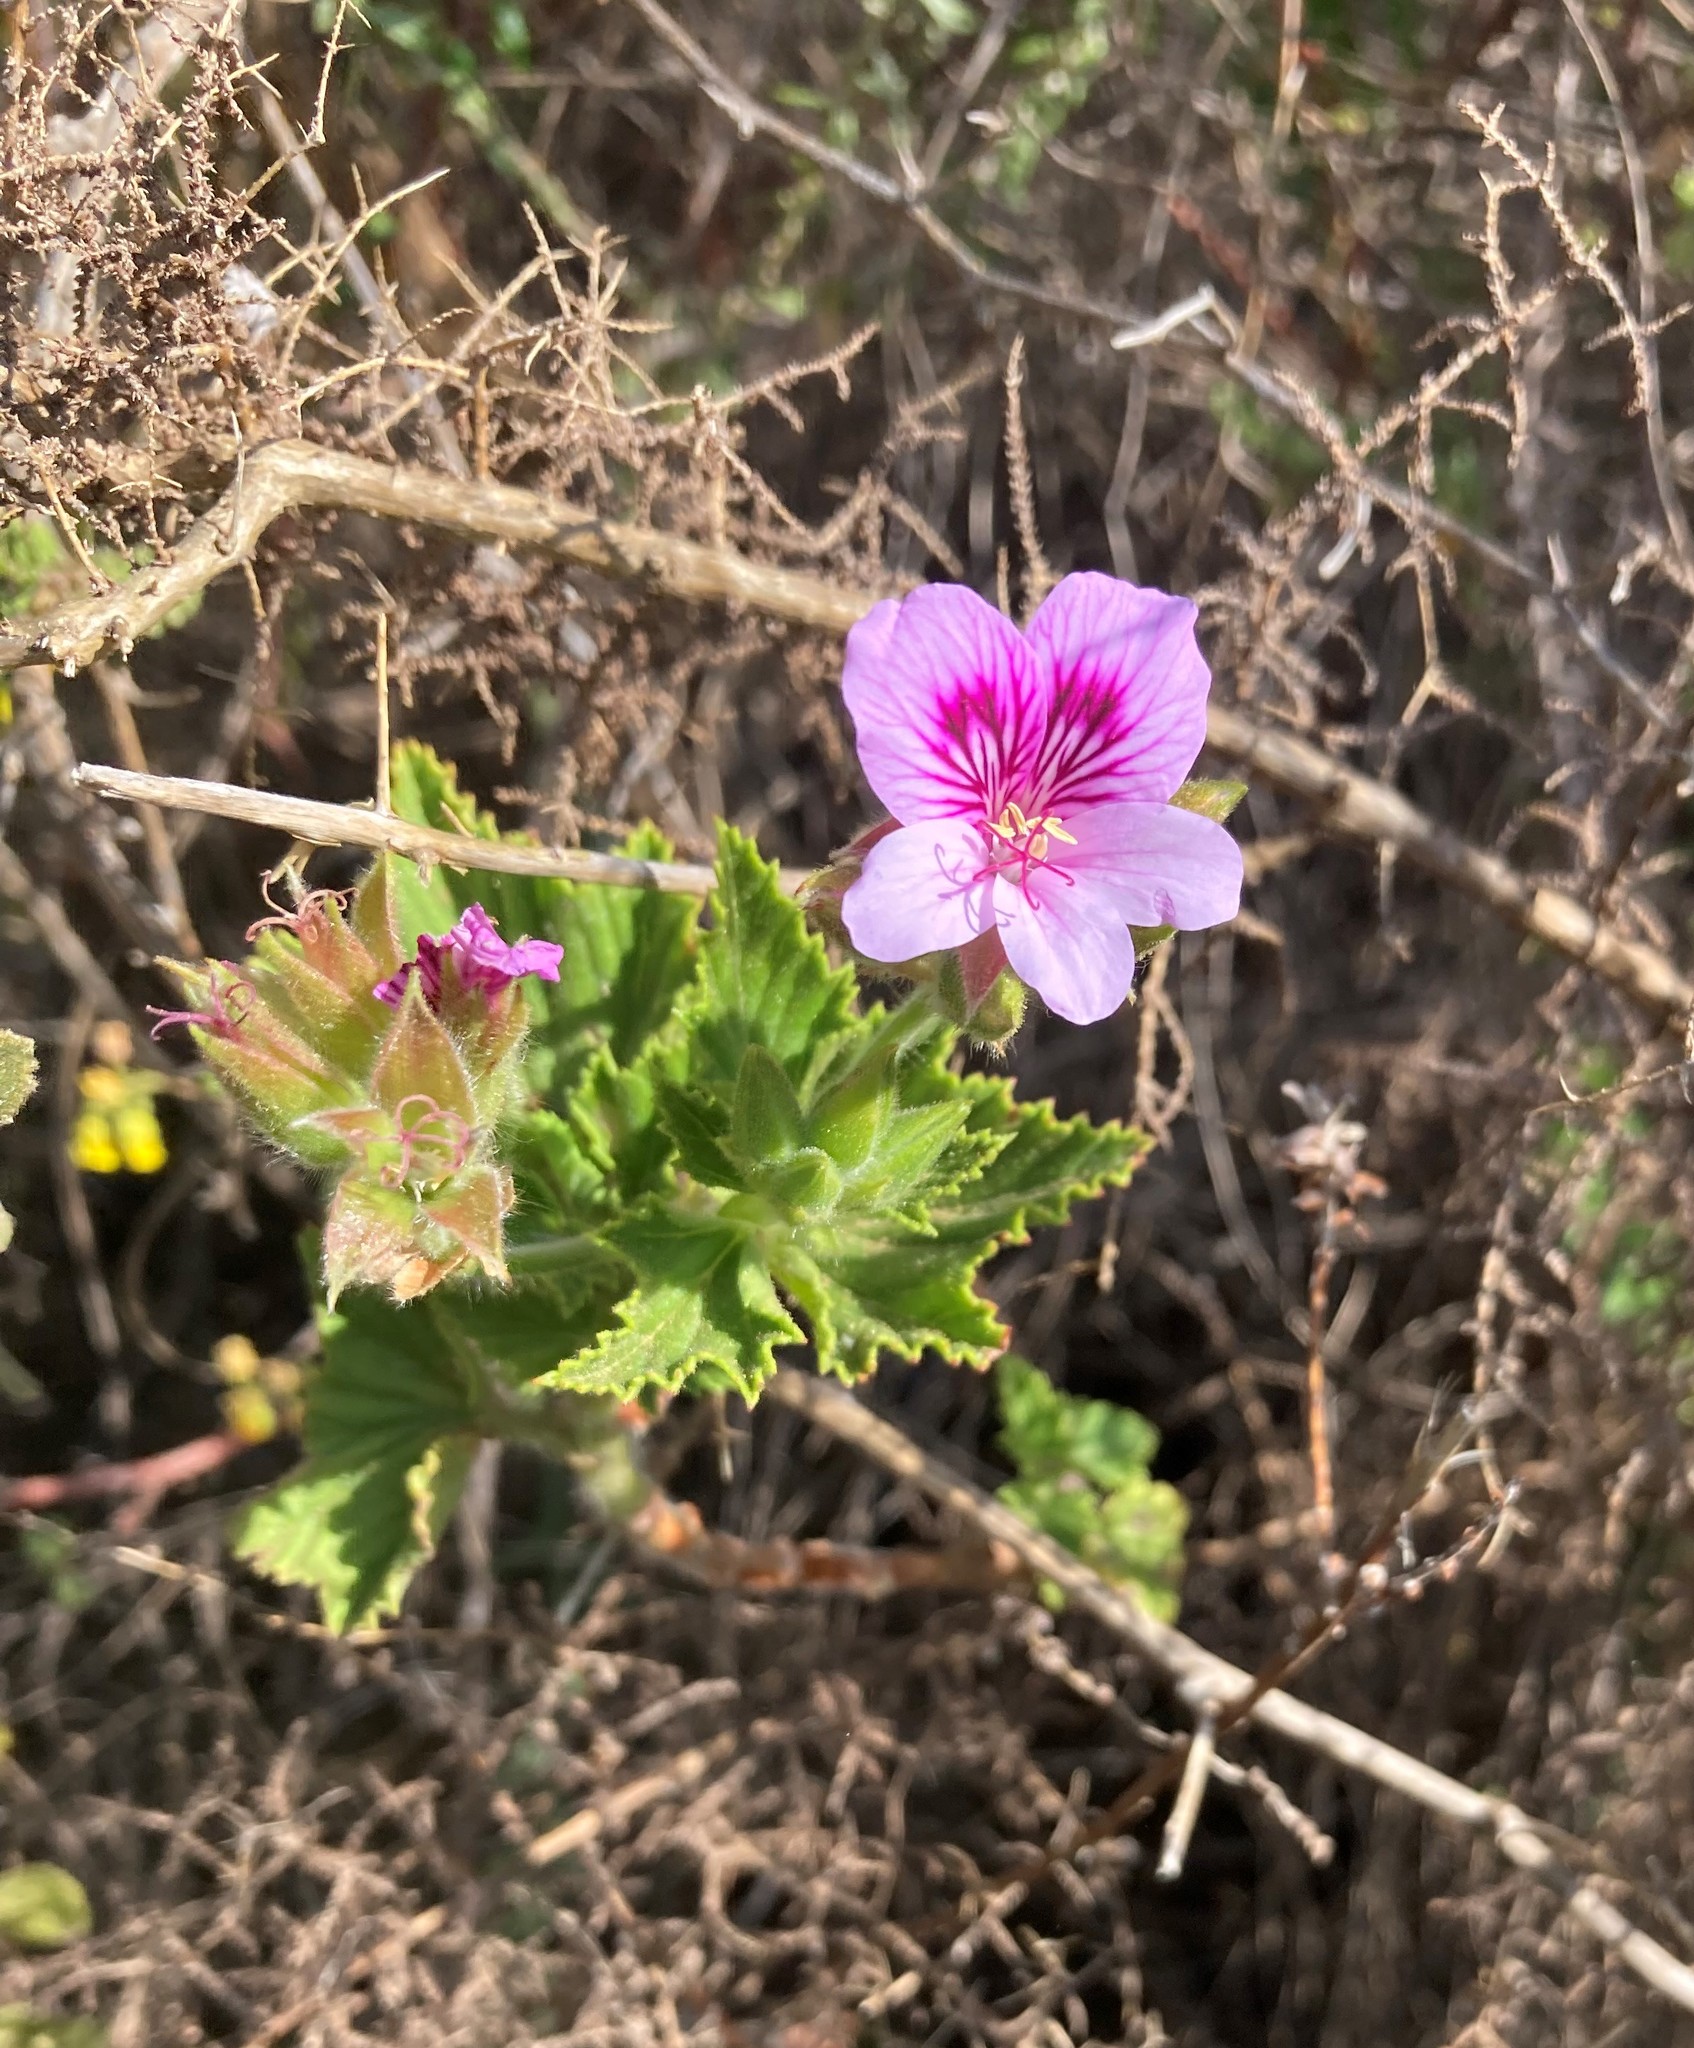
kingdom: Plantae
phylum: Tracheophyta
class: Magnoliopsida
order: Geraniales
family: Geraniaceae
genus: Pelargonium
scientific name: Pelargonium cucullatum
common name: Tree pelargonium
